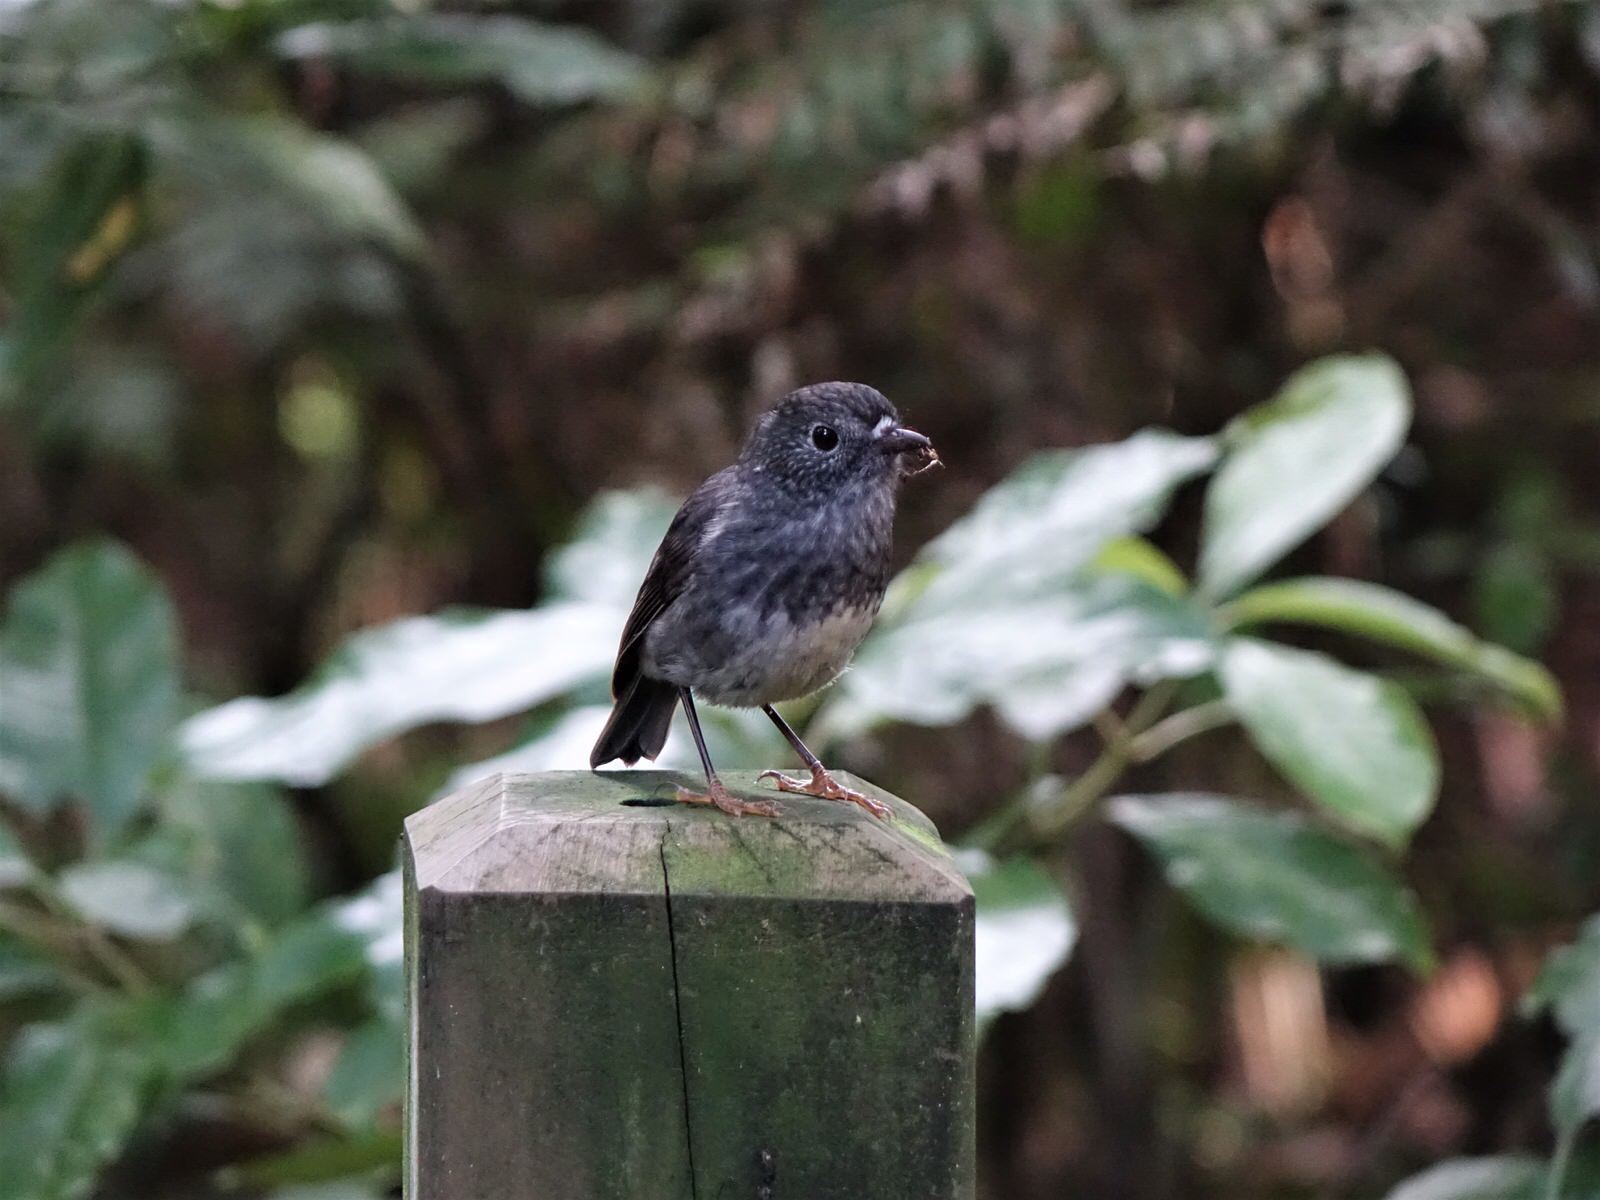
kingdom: Animalia
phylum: Chordata
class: Aves
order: Passeriformes
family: Petroicidae
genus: Petroica
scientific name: Petroica australis
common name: New zealand robin
